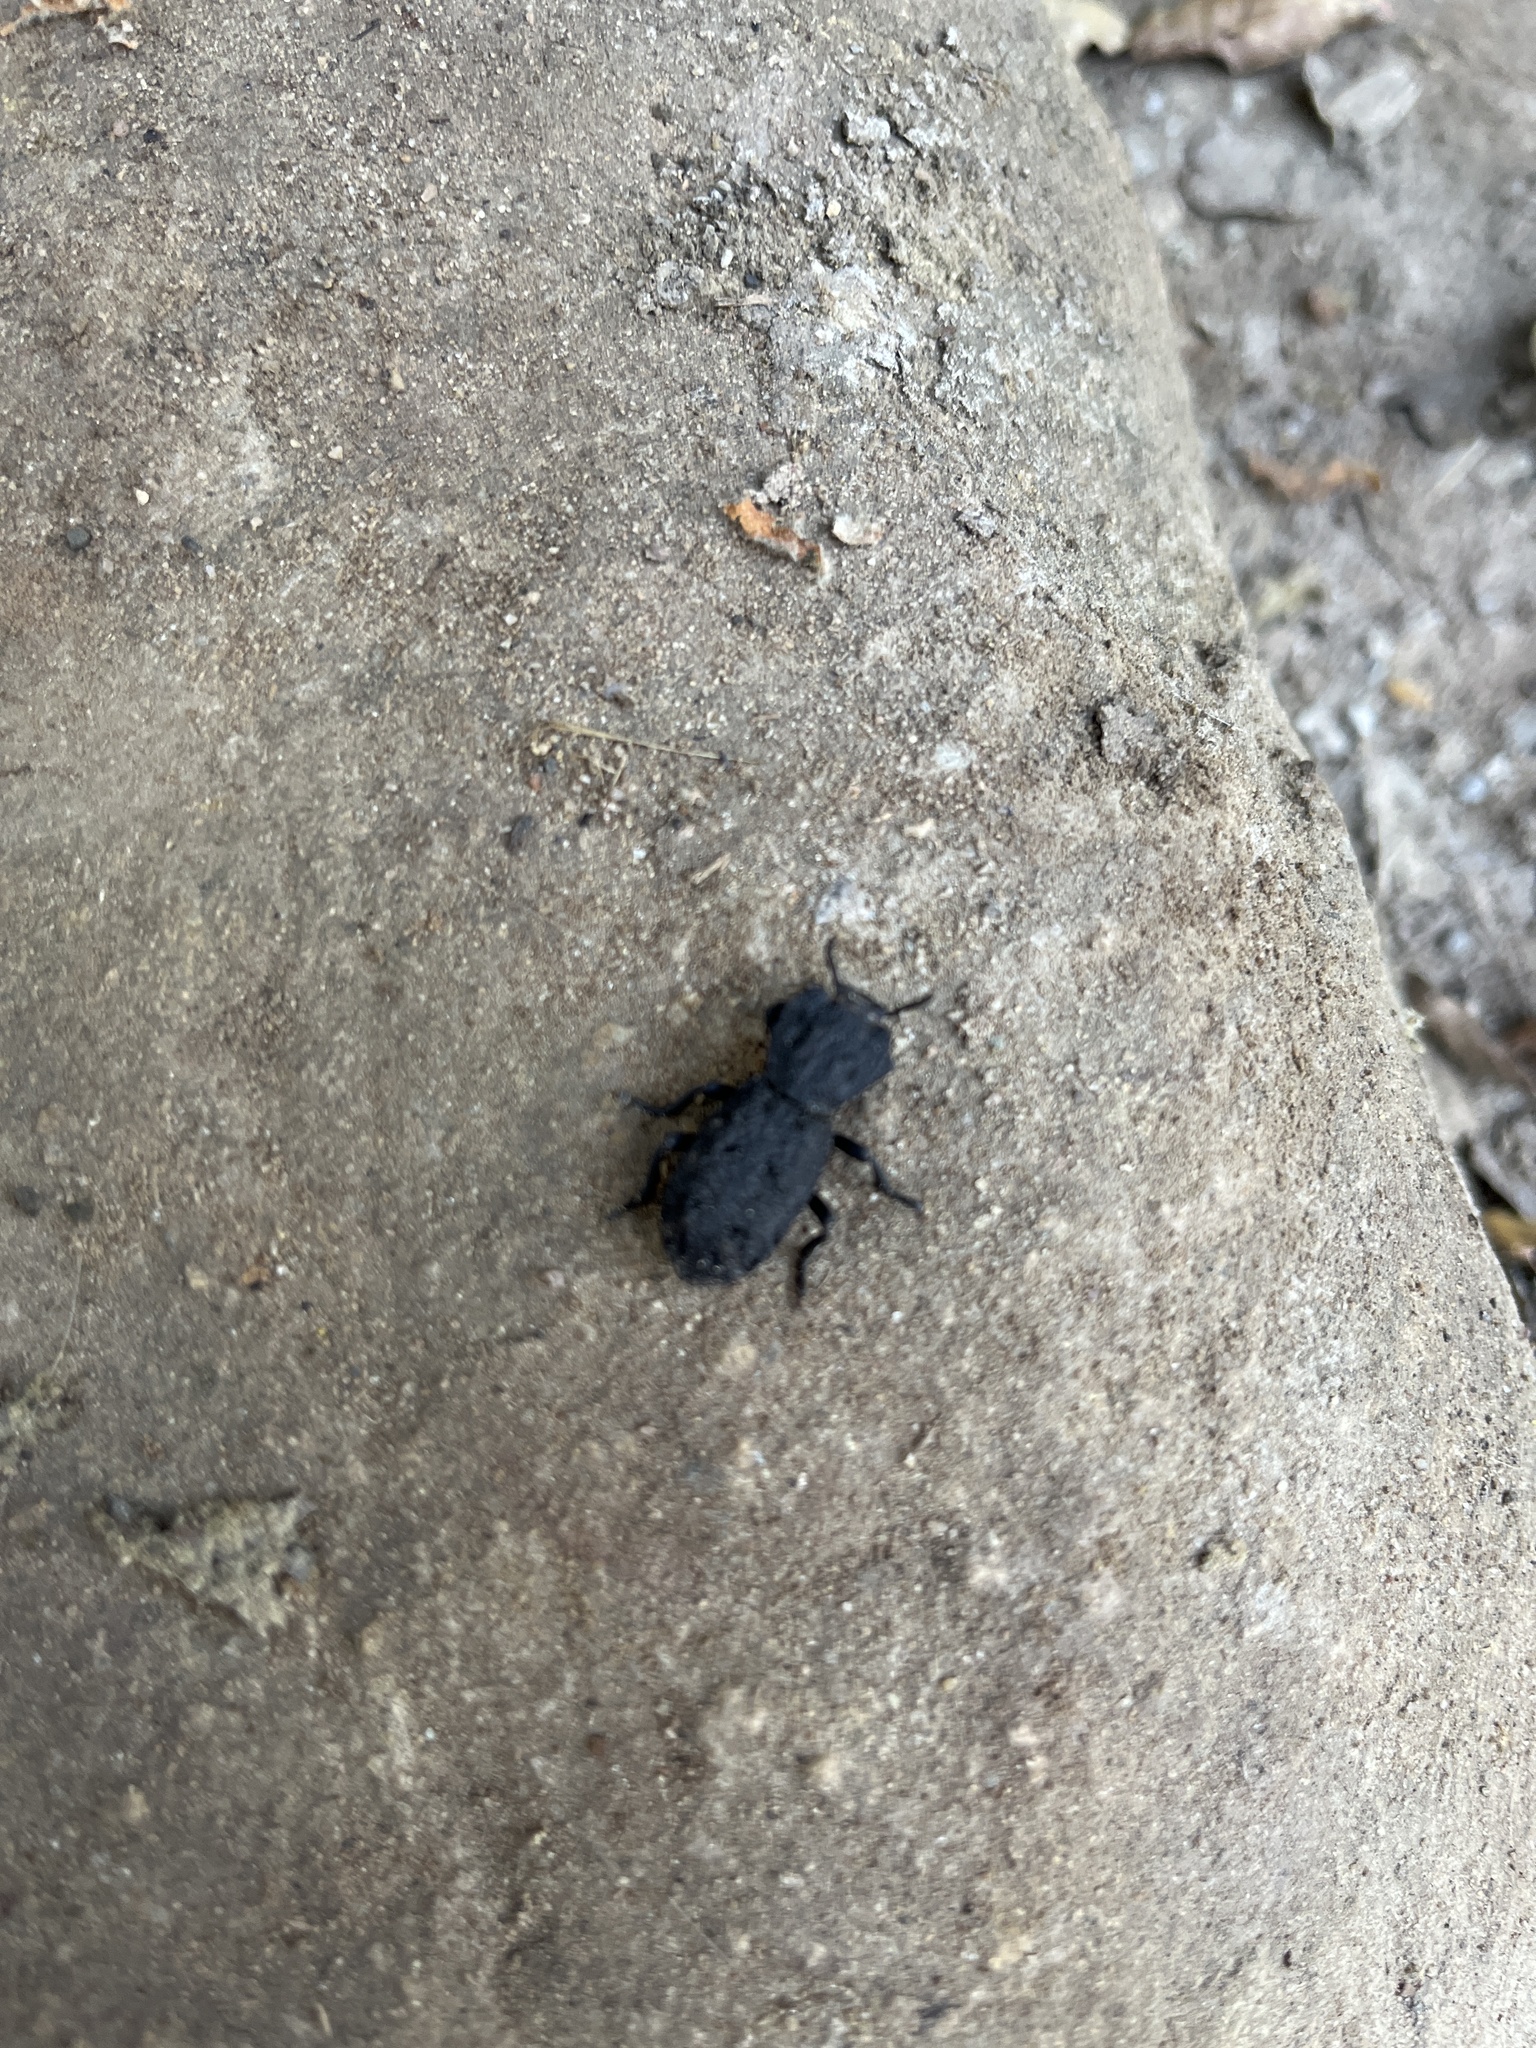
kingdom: Animalia
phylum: Arthropoda
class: Insecta
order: Coleoptera
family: Zopheridae
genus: Phloeodes
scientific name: Phloeodes diabolicus
